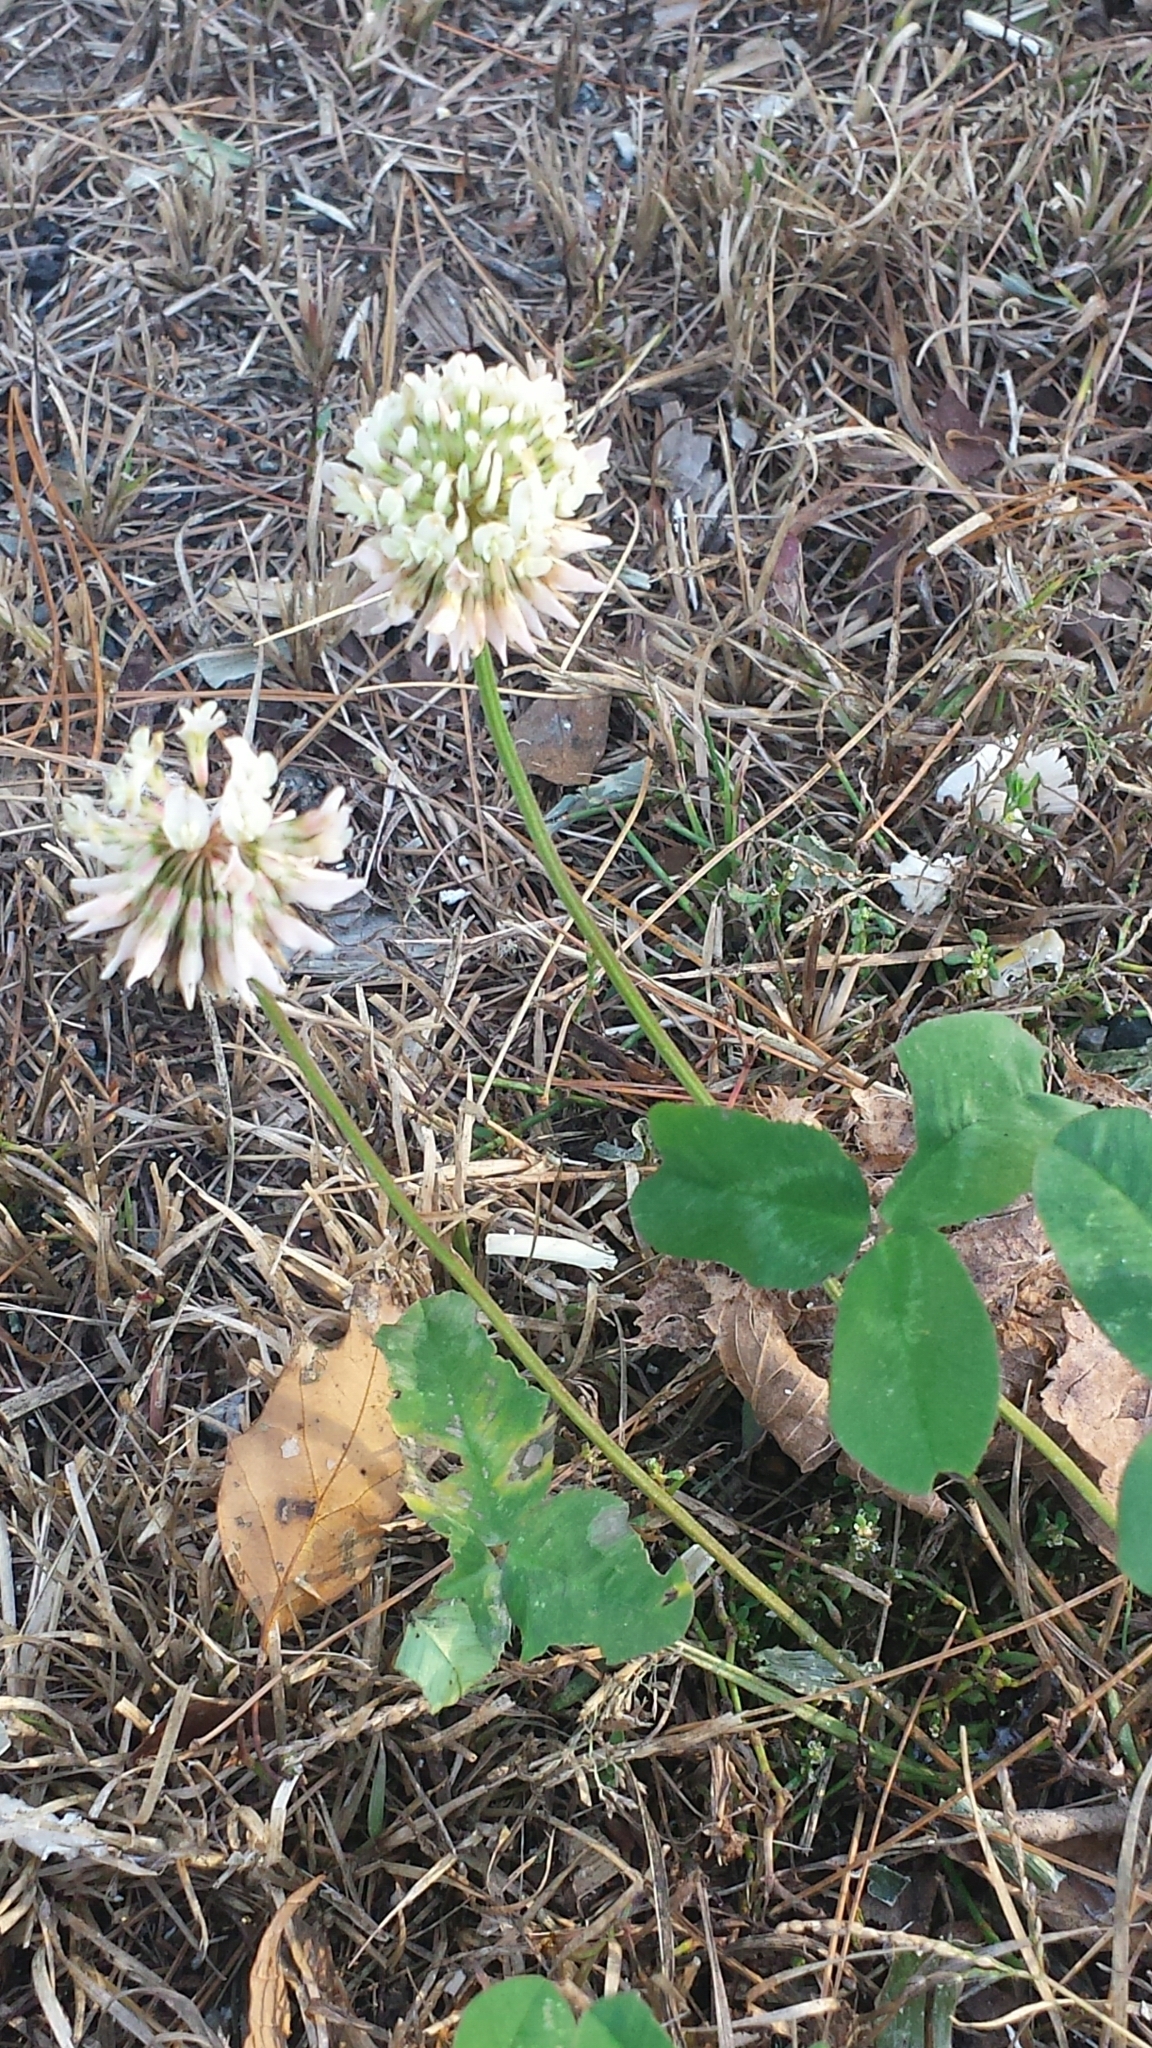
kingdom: Plantae
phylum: Tracheophyta
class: Magnoliopsida
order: Fabales
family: Fabaceae
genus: Trifolium
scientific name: Trifolium repens
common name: White clover
